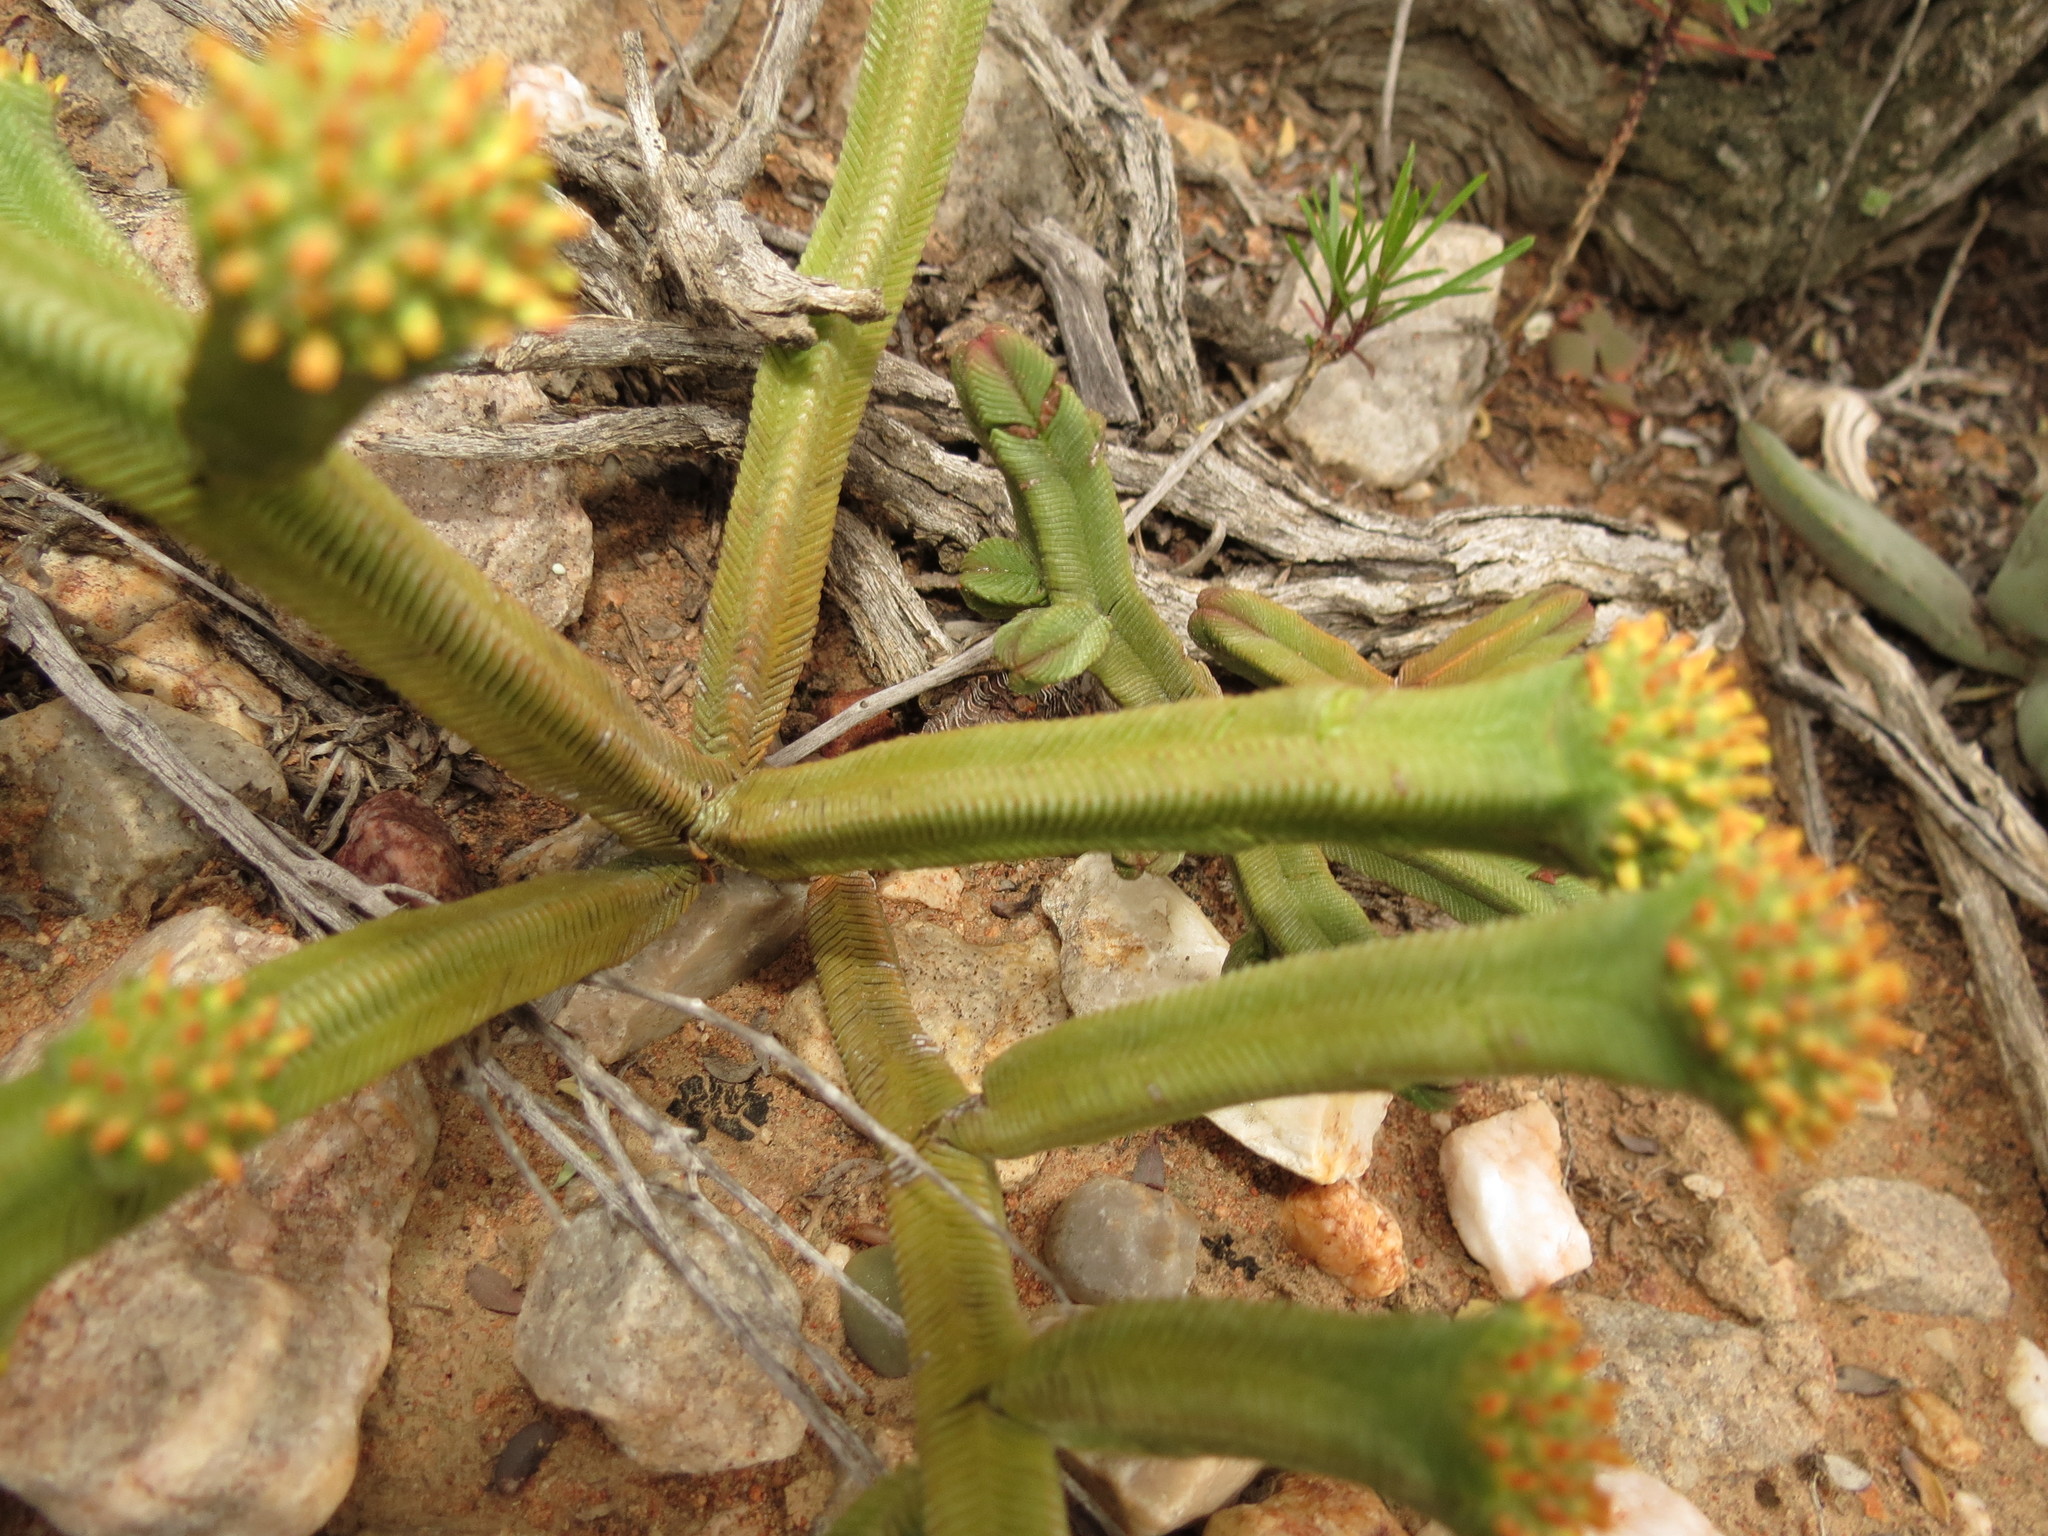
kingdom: Plantae
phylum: Tracheophyta
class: Magnoliopsida
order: Saxifragales
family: Crassulaceae
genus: Crassula
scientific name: Crassula pyramidalis
